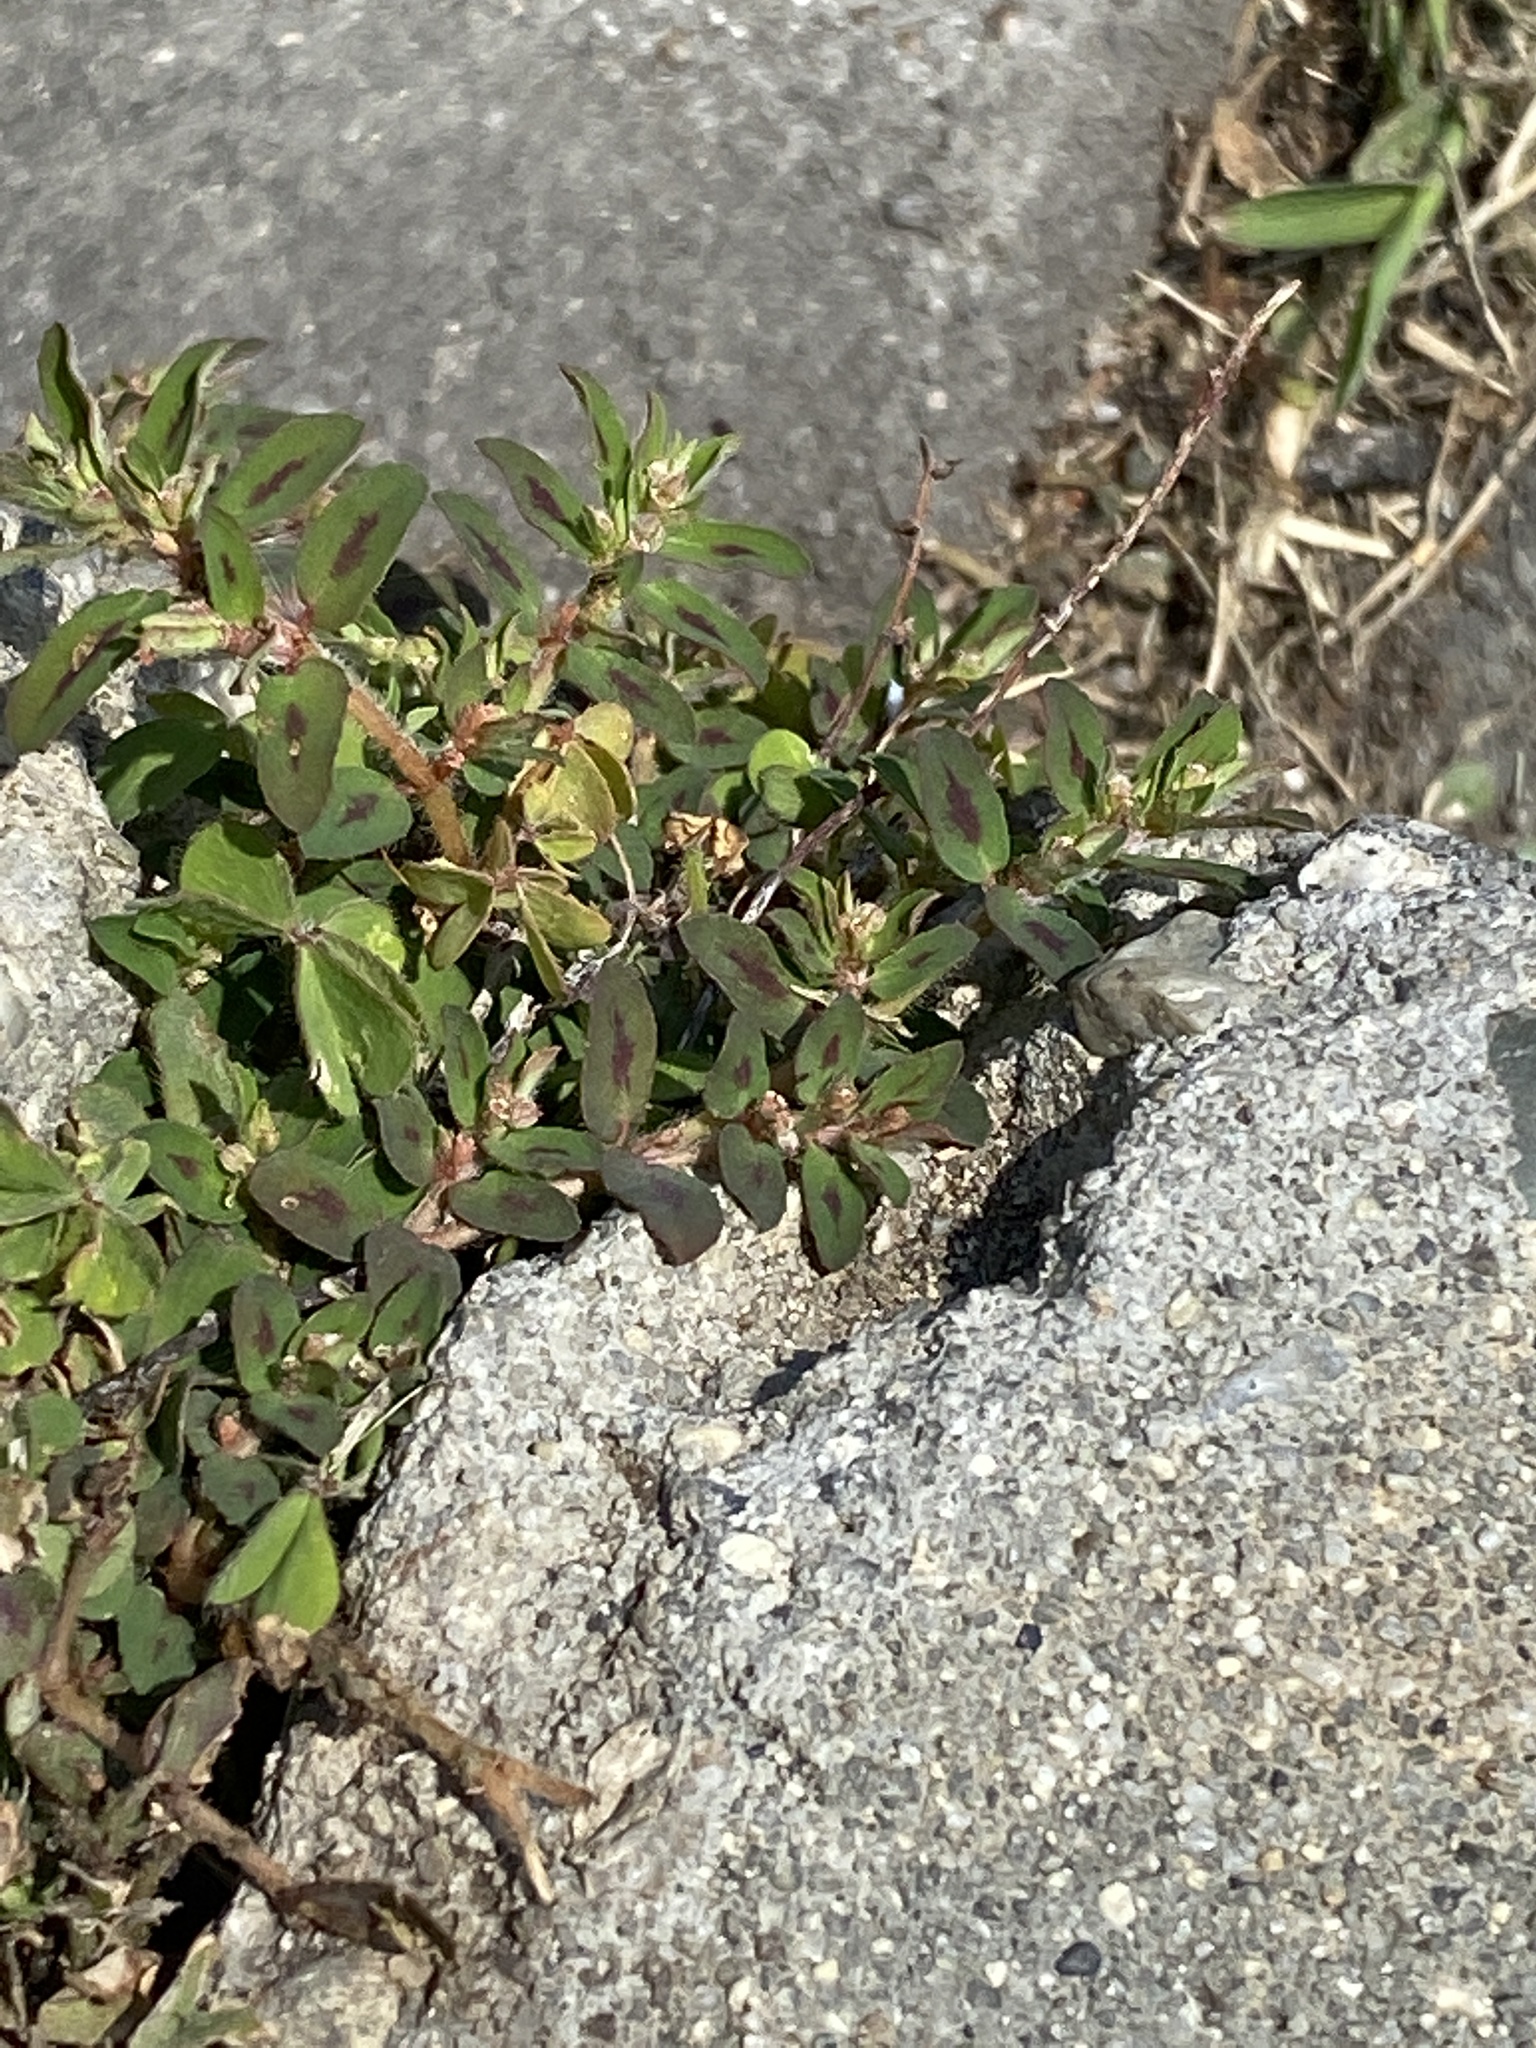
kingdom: Plantae
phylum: Tracheophyta
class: Magnoliopsida
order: Malpighiales
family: Euphorbiaceae
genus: Euphorbia
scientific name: Euphorbia maculata
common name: Spotted spurge
